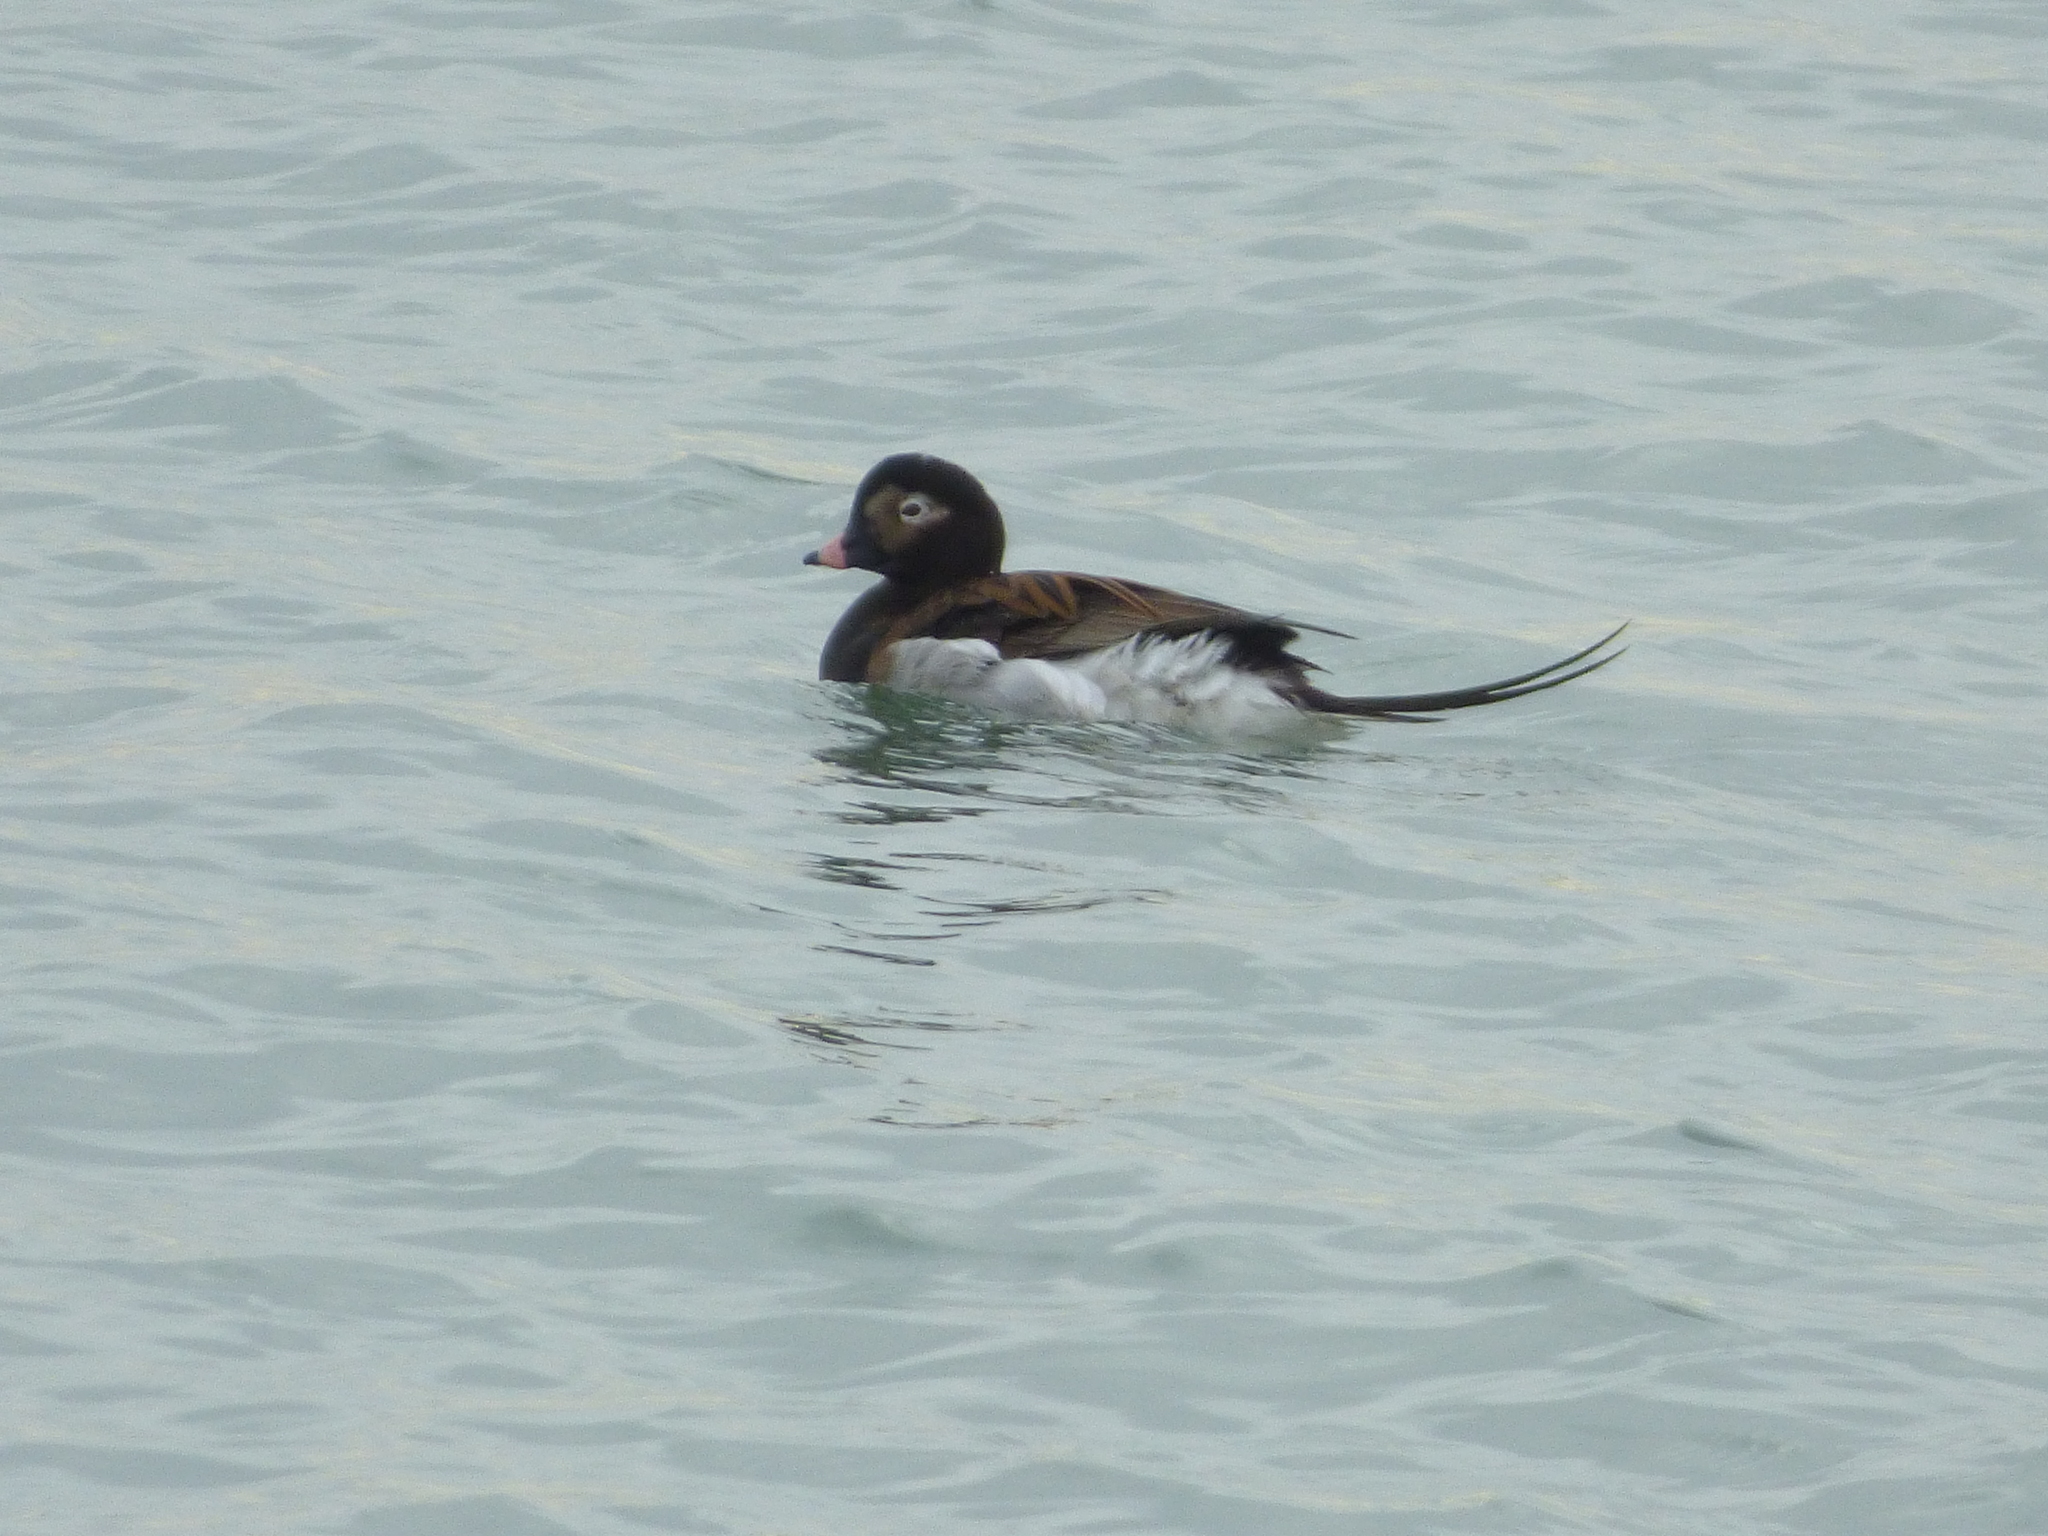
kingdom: Animalia
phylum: Chordata
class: Aves
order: Anseriformes
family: Anatidae
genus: Clangula
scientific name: Clangula hyemalis
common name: Long-tailed duck
